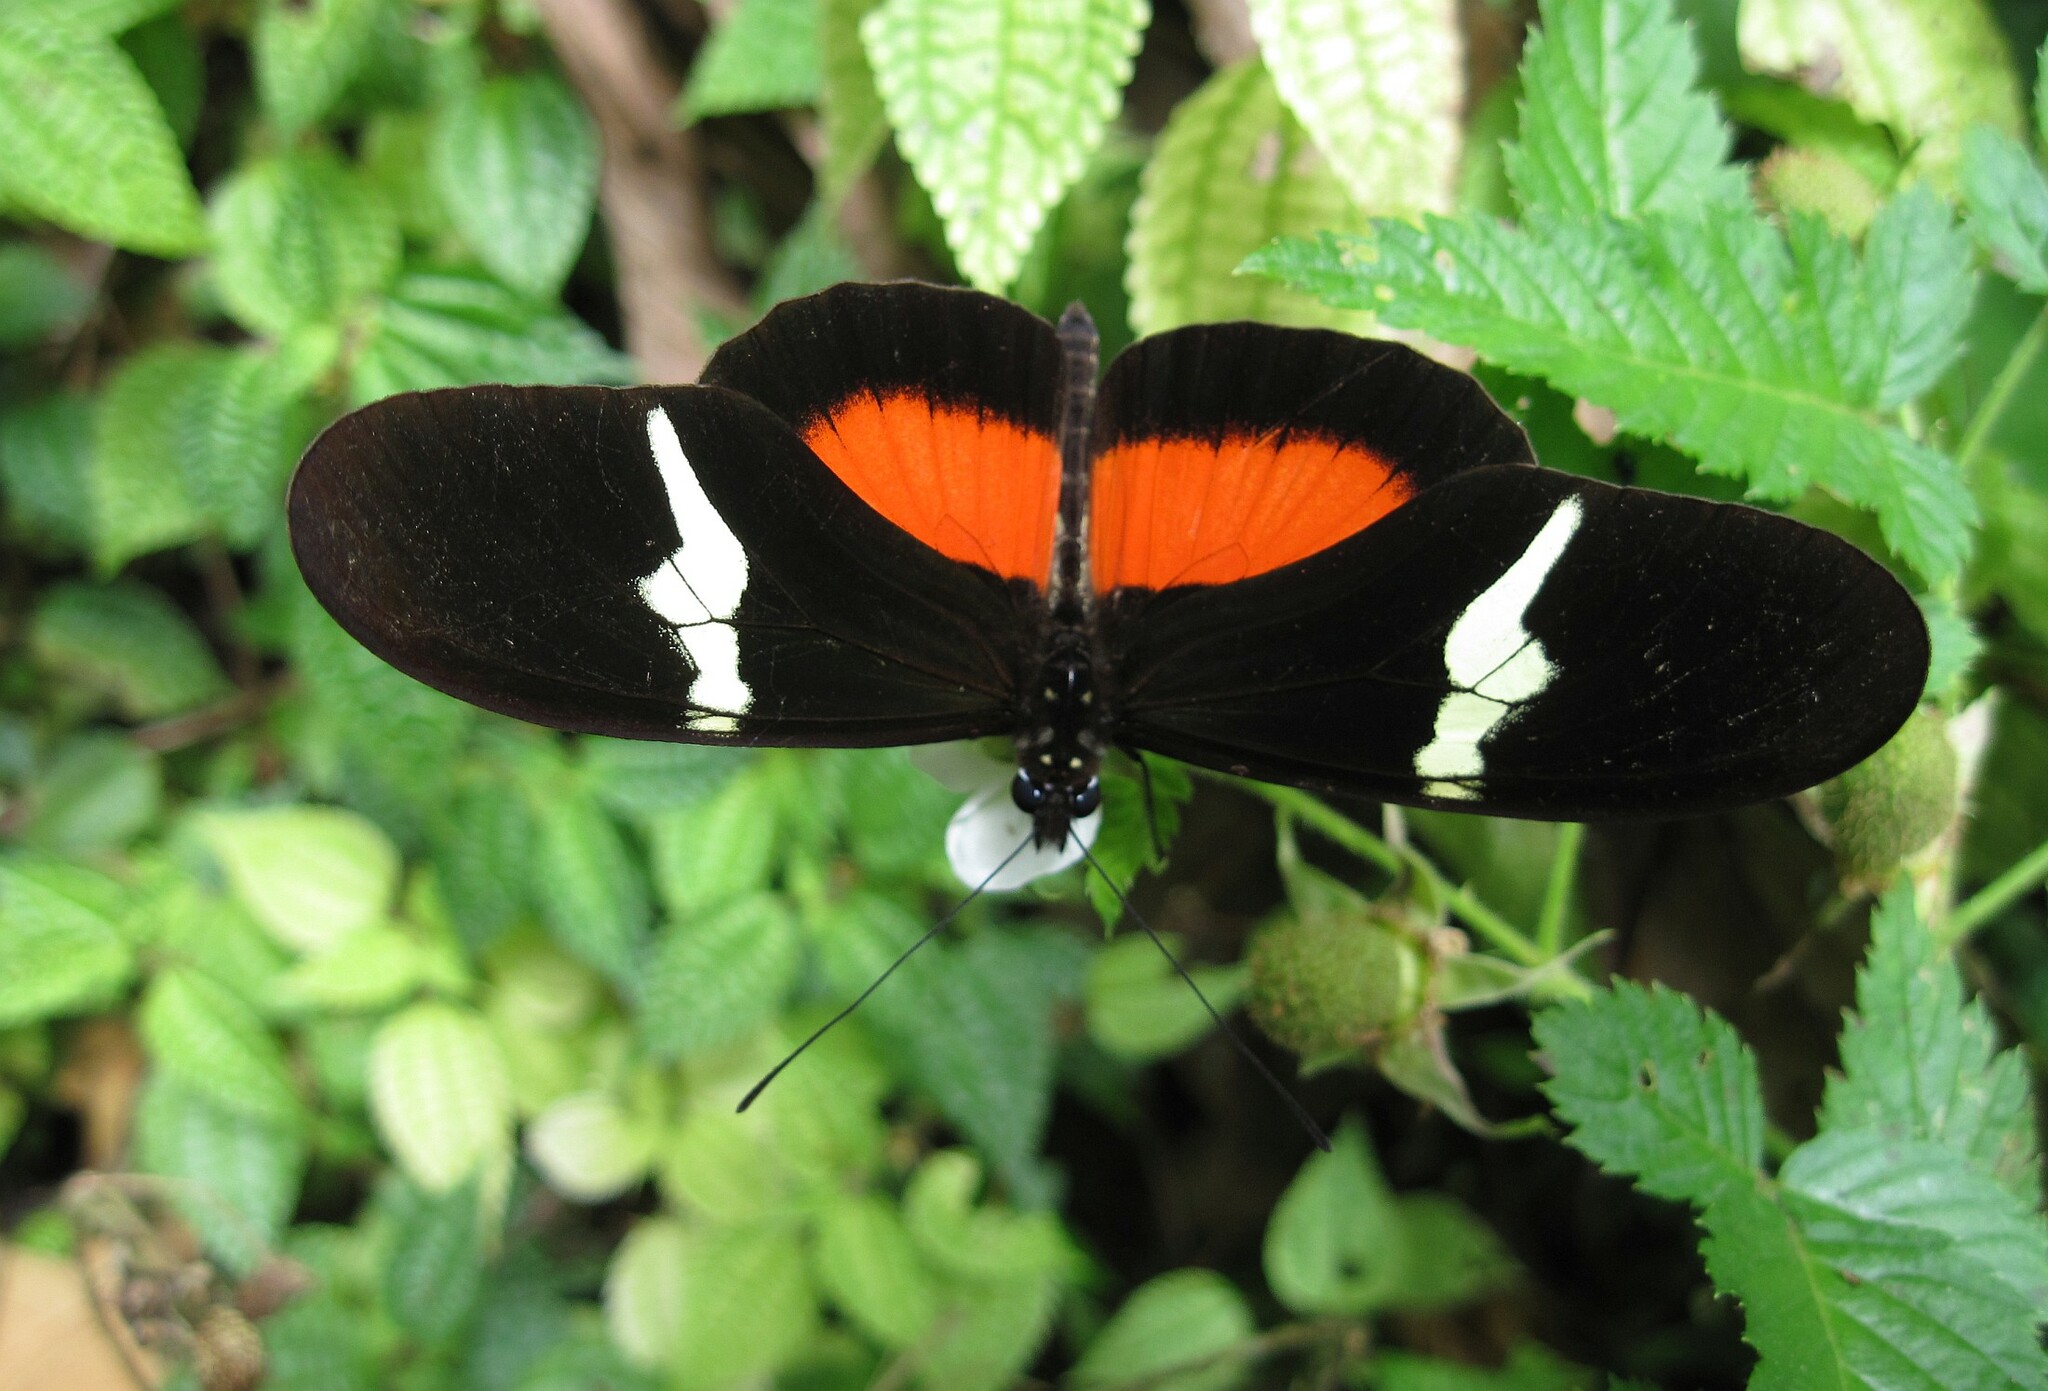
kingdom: Animalia
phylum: Arthropoda
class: Insecta
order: Lepidoptera
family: Nymphalidae
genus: Heliconius
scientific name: Heliconius clysonymus
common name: Clysonymus longwing
